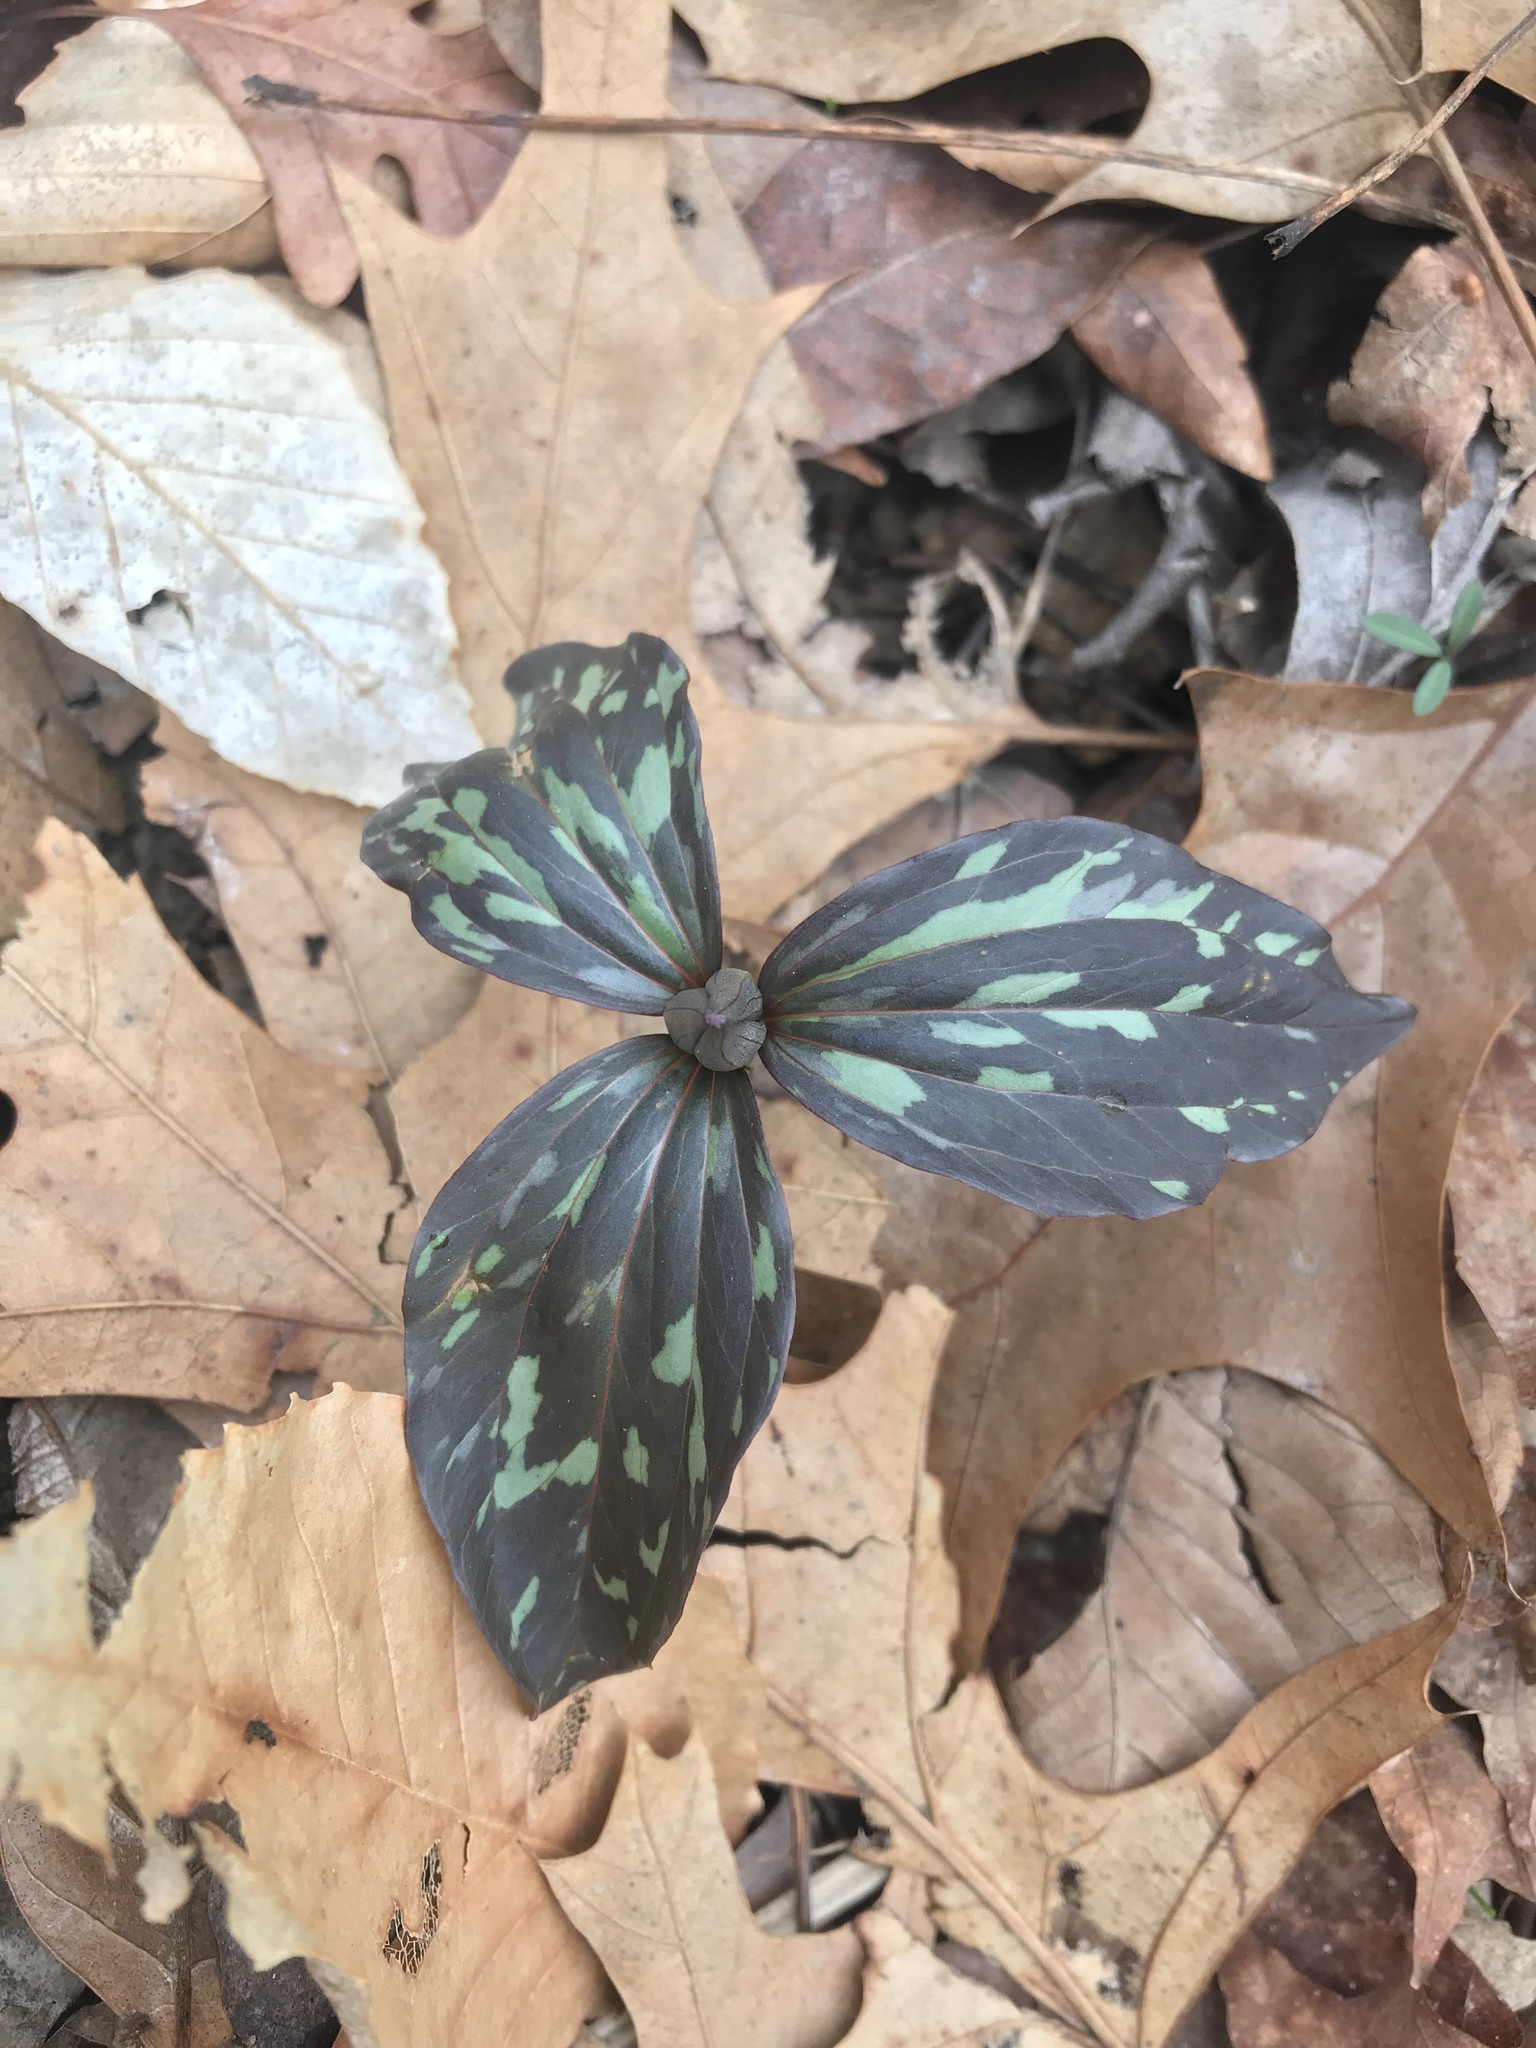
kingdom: Plantae
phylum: Tracheophyta
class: Liliopsida
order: Liliales
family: Melanthiaceae
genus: Trillium
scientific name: Trillium recurvatum
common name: Bloody butcher
